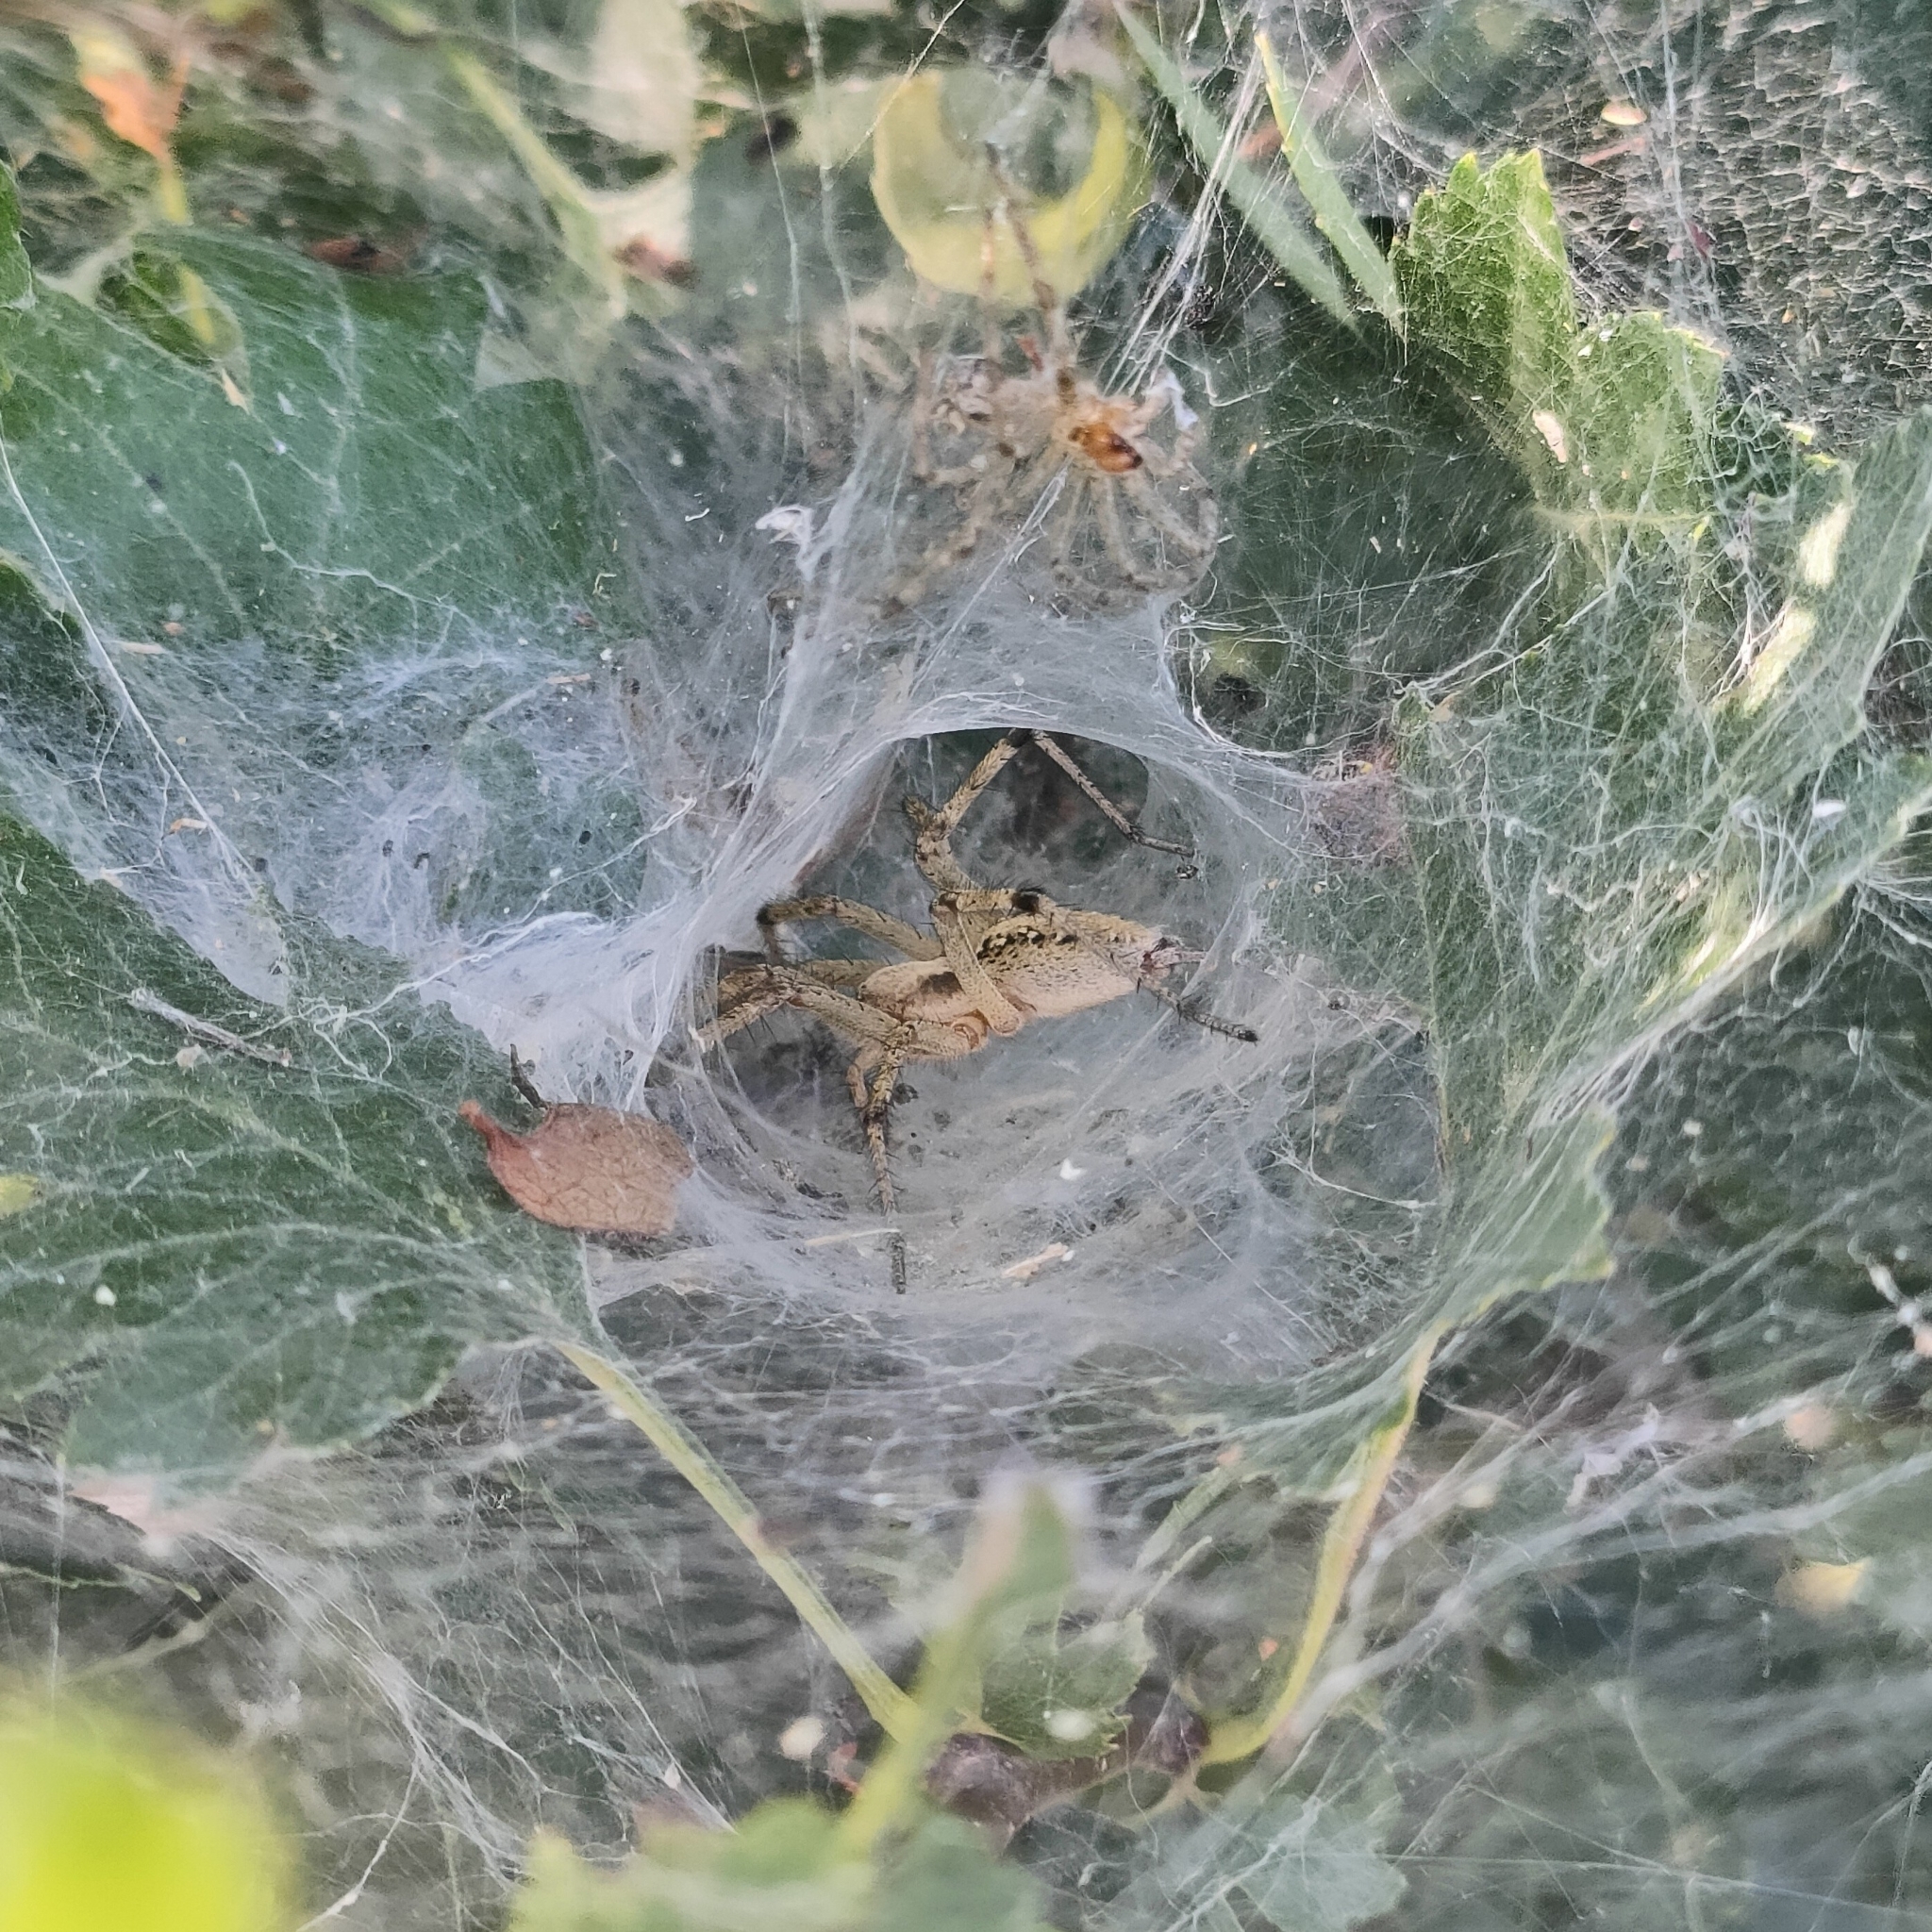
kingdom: Animalia
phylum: Arthropoda
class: Arachnida
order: Araneae
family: Agelenidae
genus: Agelena
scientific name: Agelena orientalis
